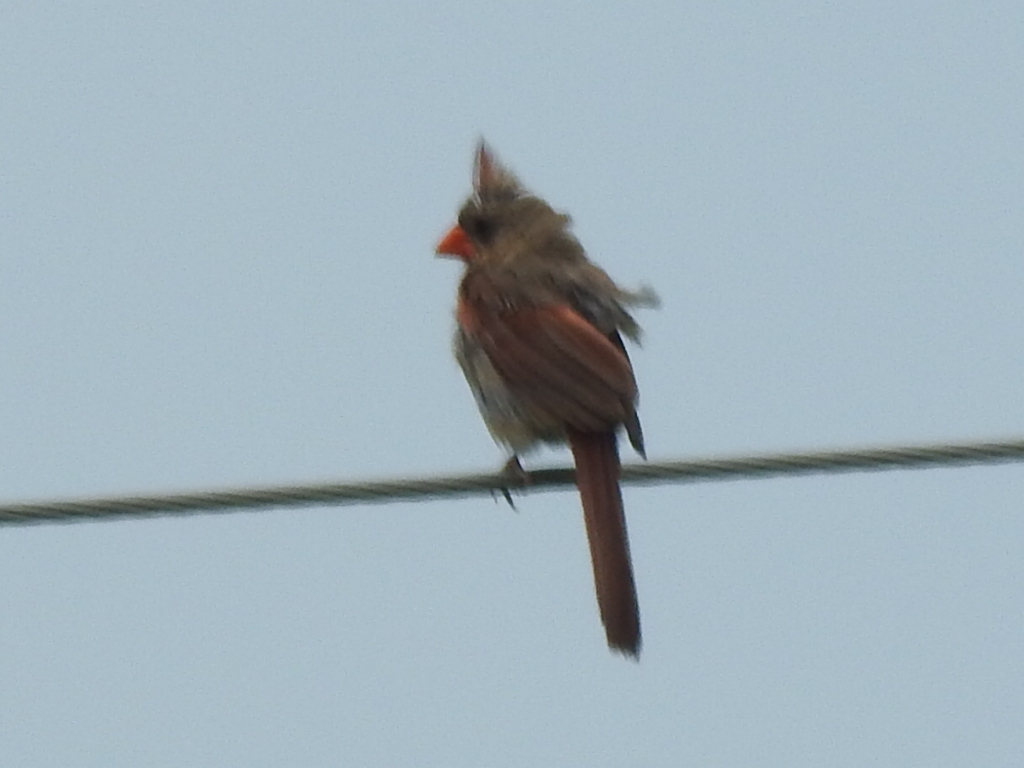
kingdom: Animalia
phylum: Chordata
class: Aves
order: Passeriformes
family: Cardinalidae
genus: Cardinalis
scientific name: Cardinalis cardinalis
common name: Northern cardinal
